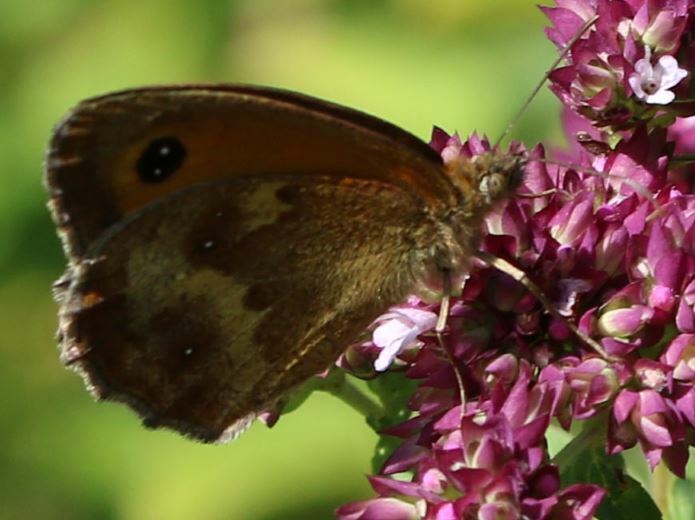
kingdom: Animalia
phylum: Arthropoda
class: Insecta
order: Lepidoptera
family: Nymphalidae
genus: Pyronia
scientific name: Pyronia tithonus
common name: Gatekeeper
